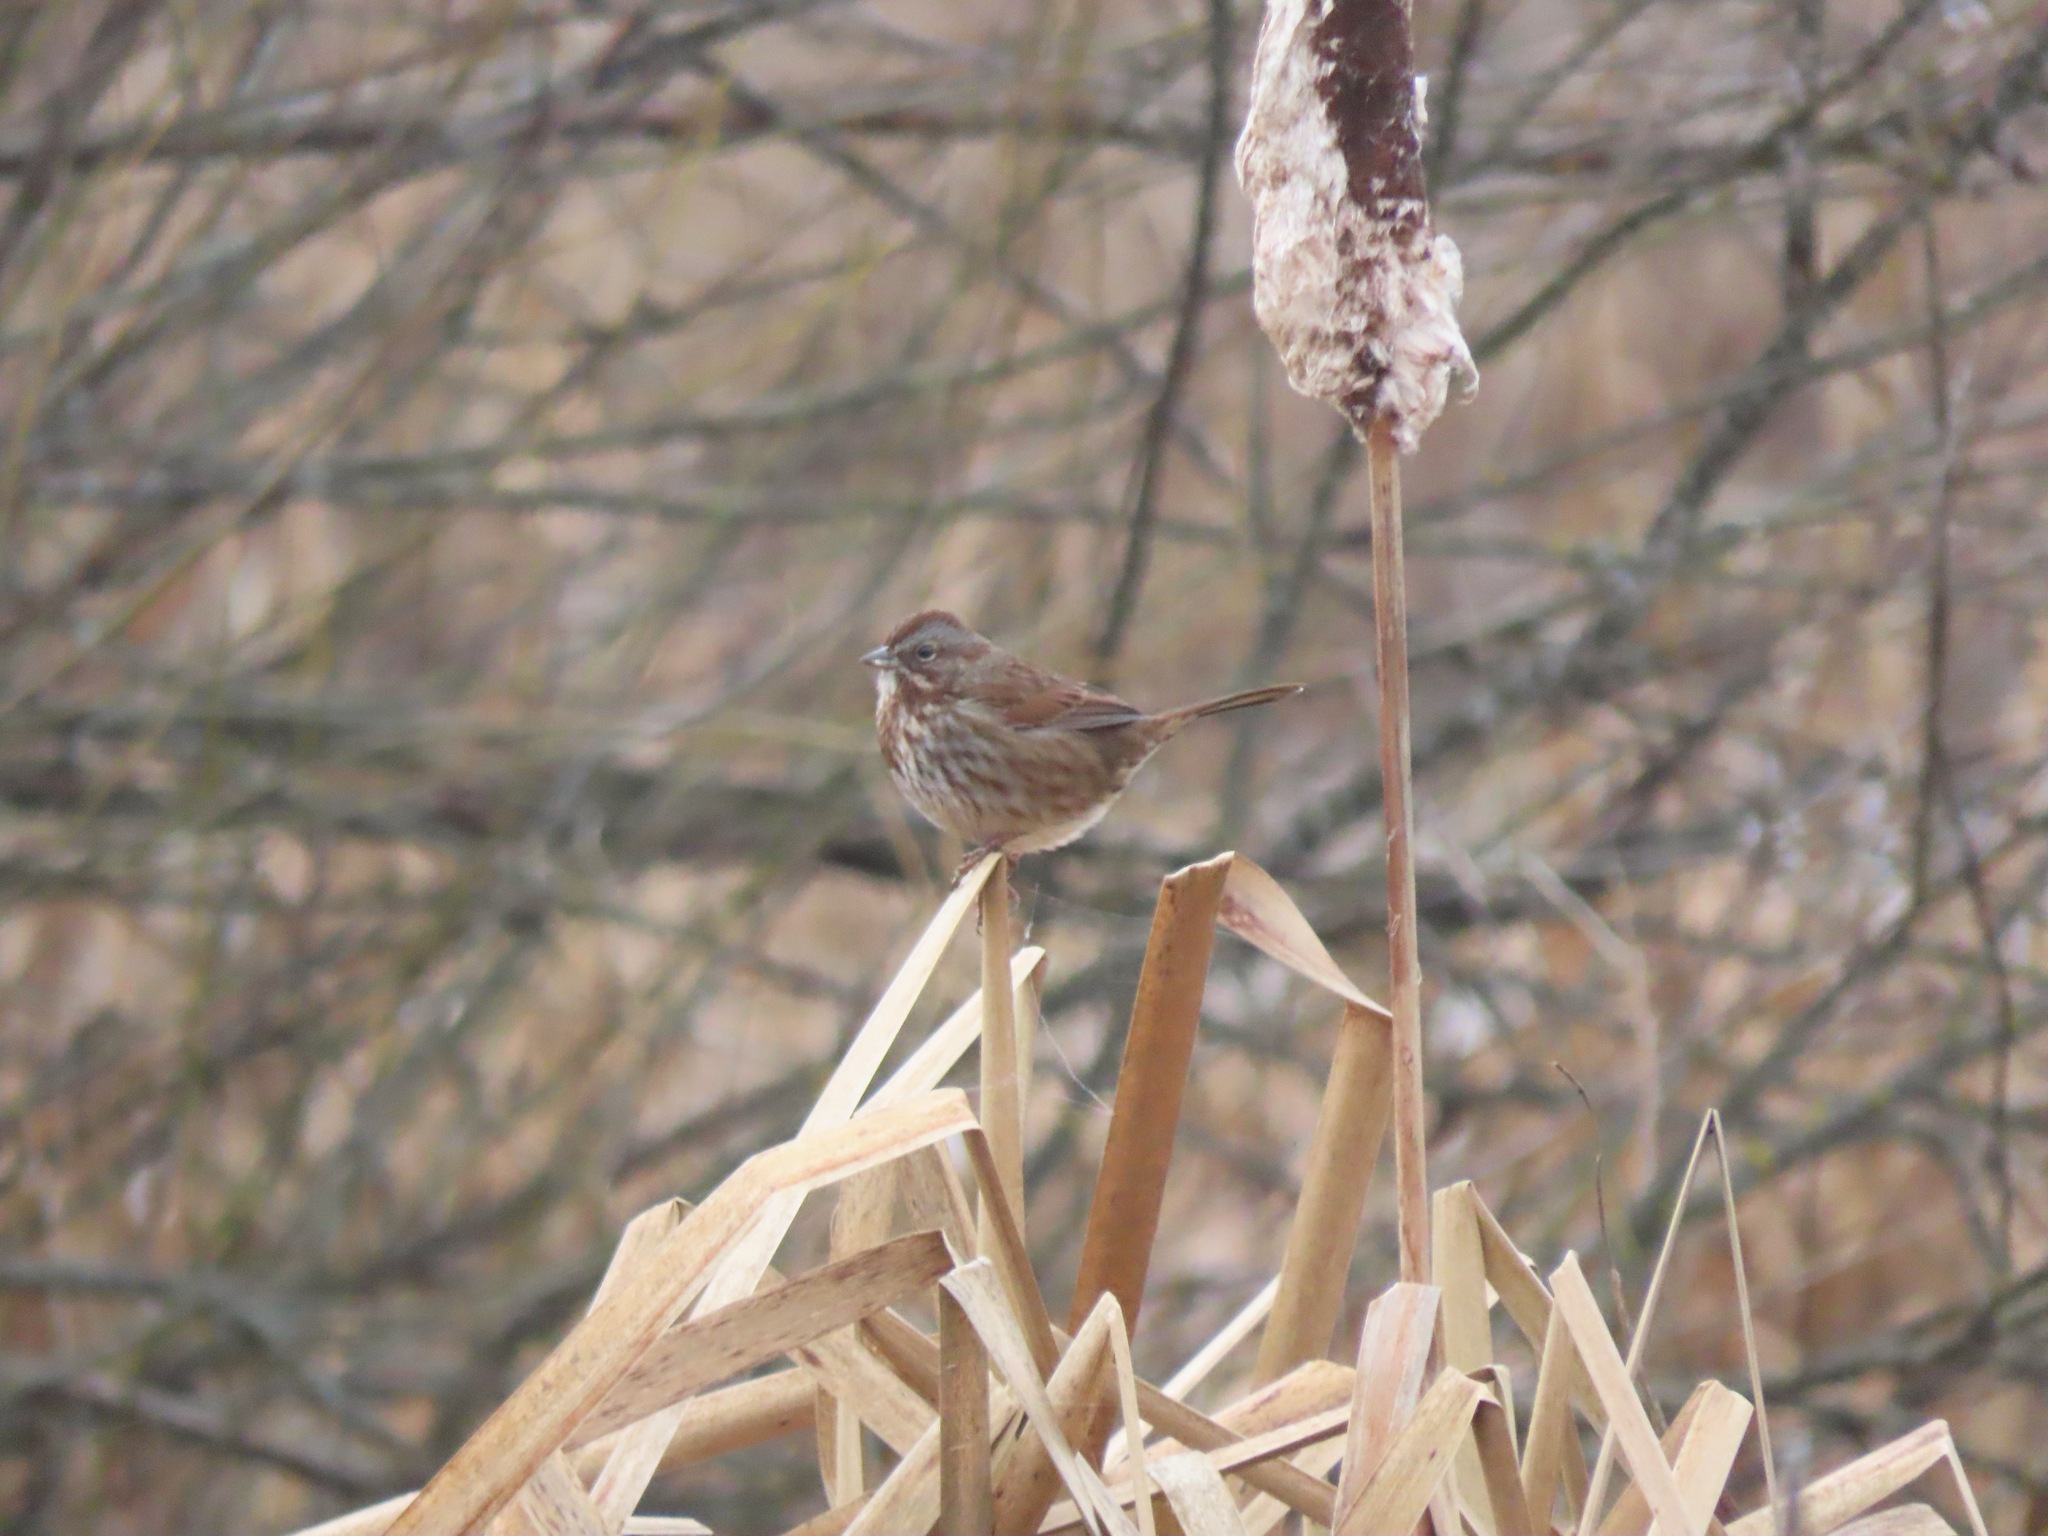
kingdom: Animalia
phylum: Chordata
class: Aves
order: Passeriformes
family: Passerellidae
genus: Melospiza
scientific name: Melospiza melodia
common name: Song sparrow
